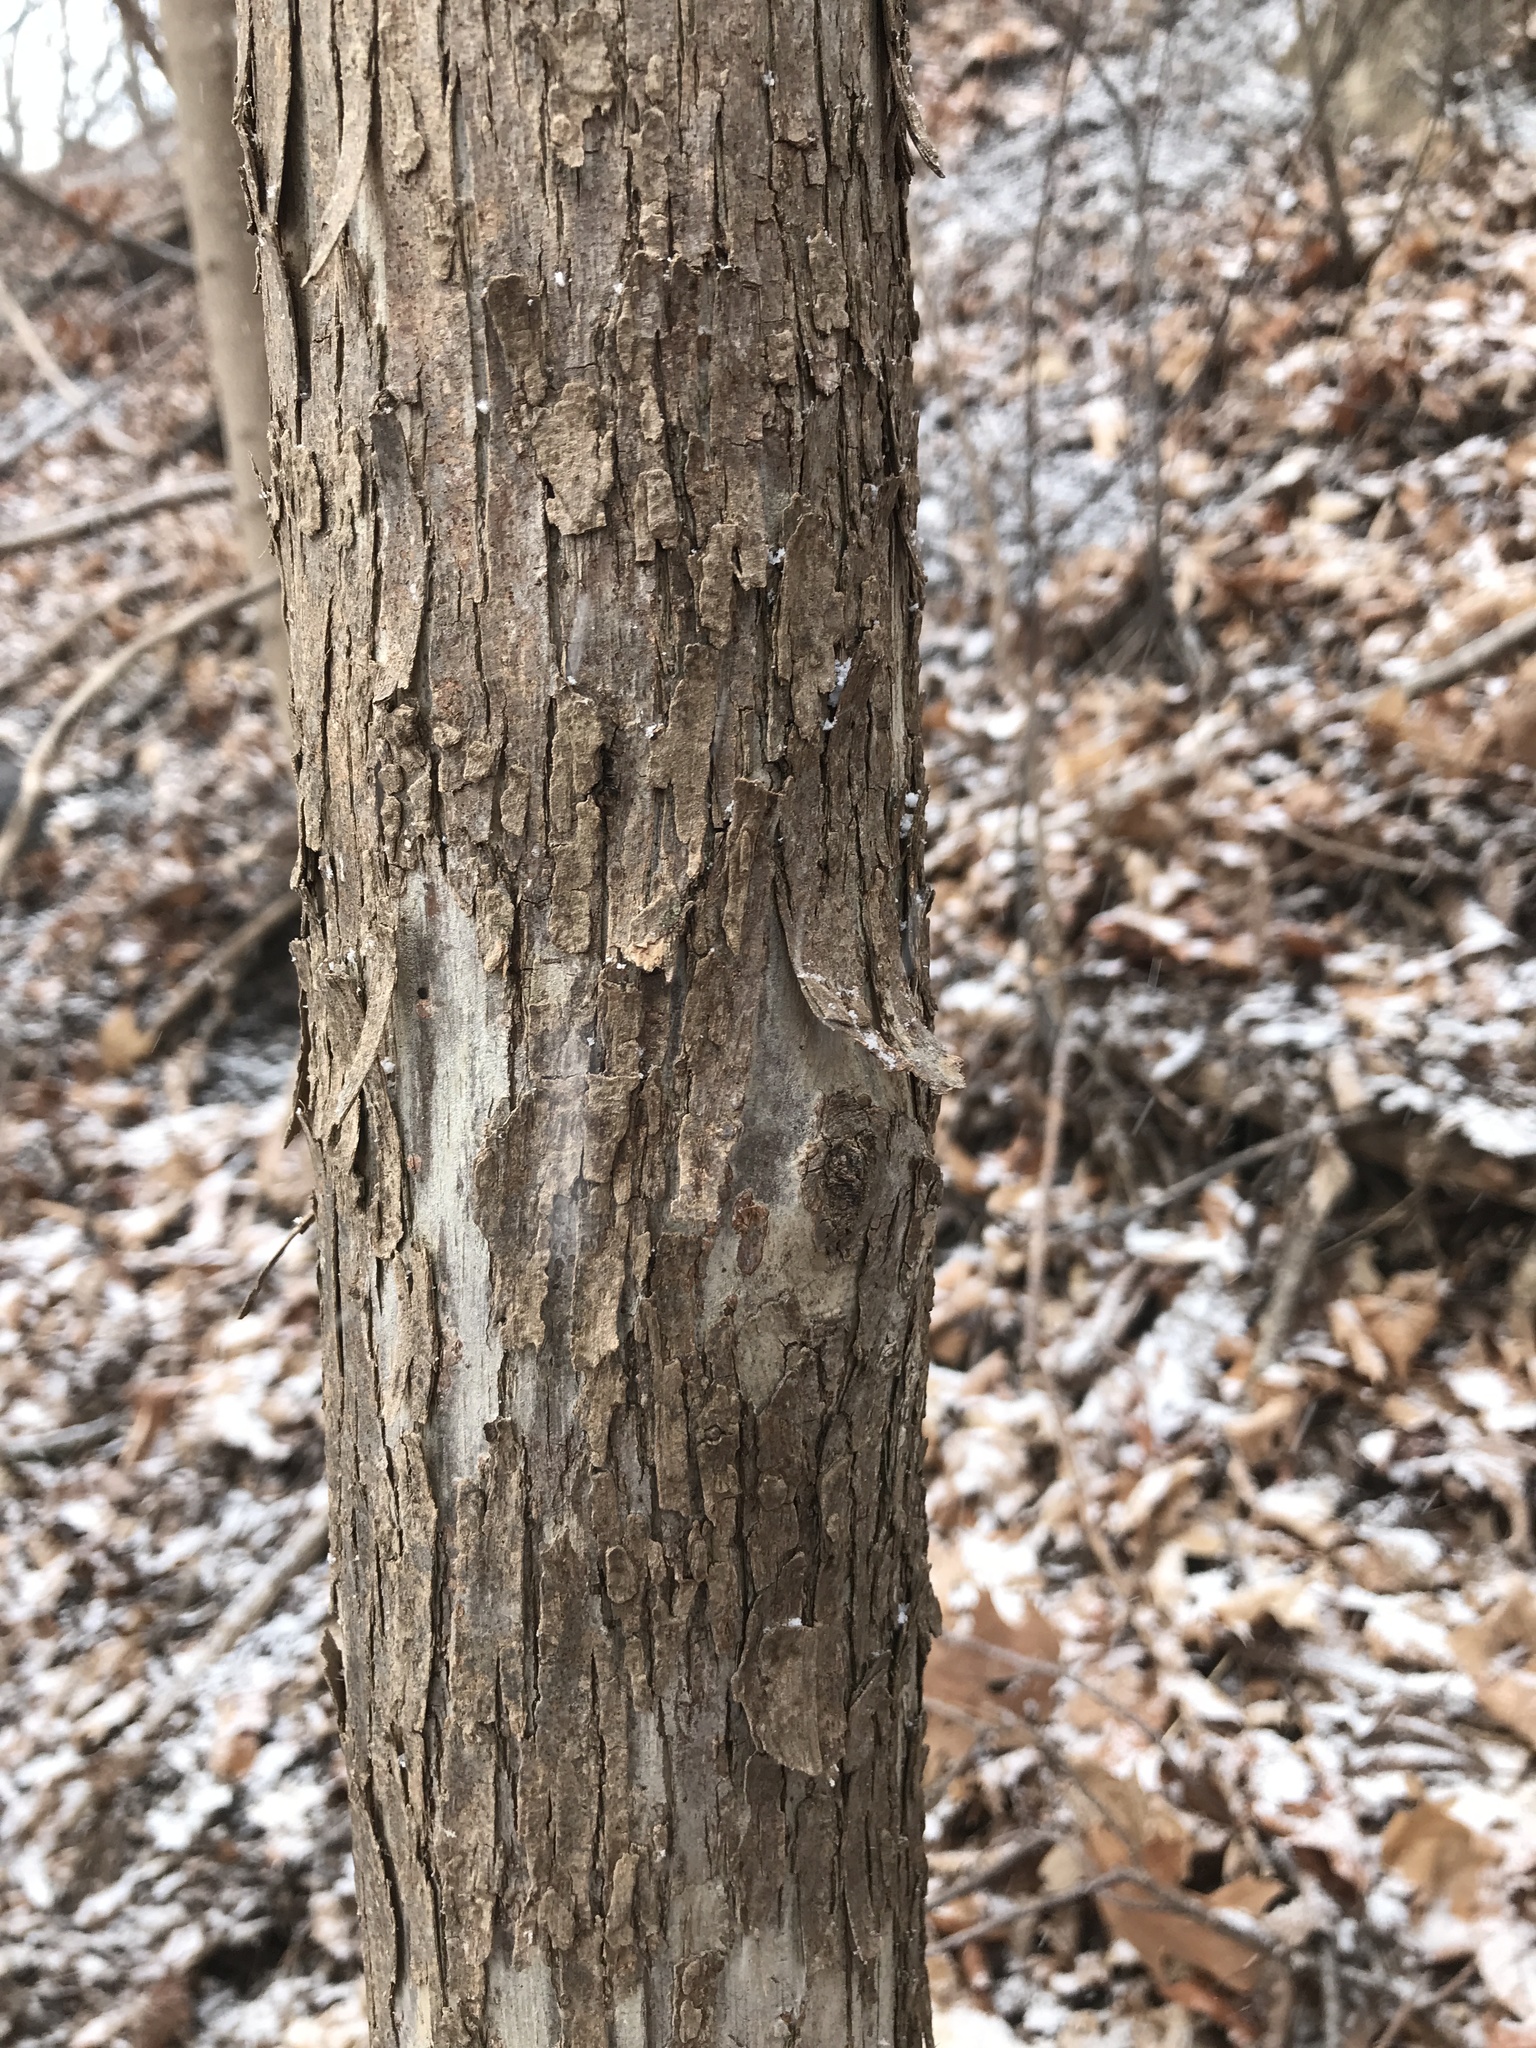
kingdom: Plantae
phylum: Tracheophyta
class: Magnoliopsida
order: Fagales
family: Betulaceae
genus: Ostrya
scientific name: Ostrya virginiana
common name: Ironwood
